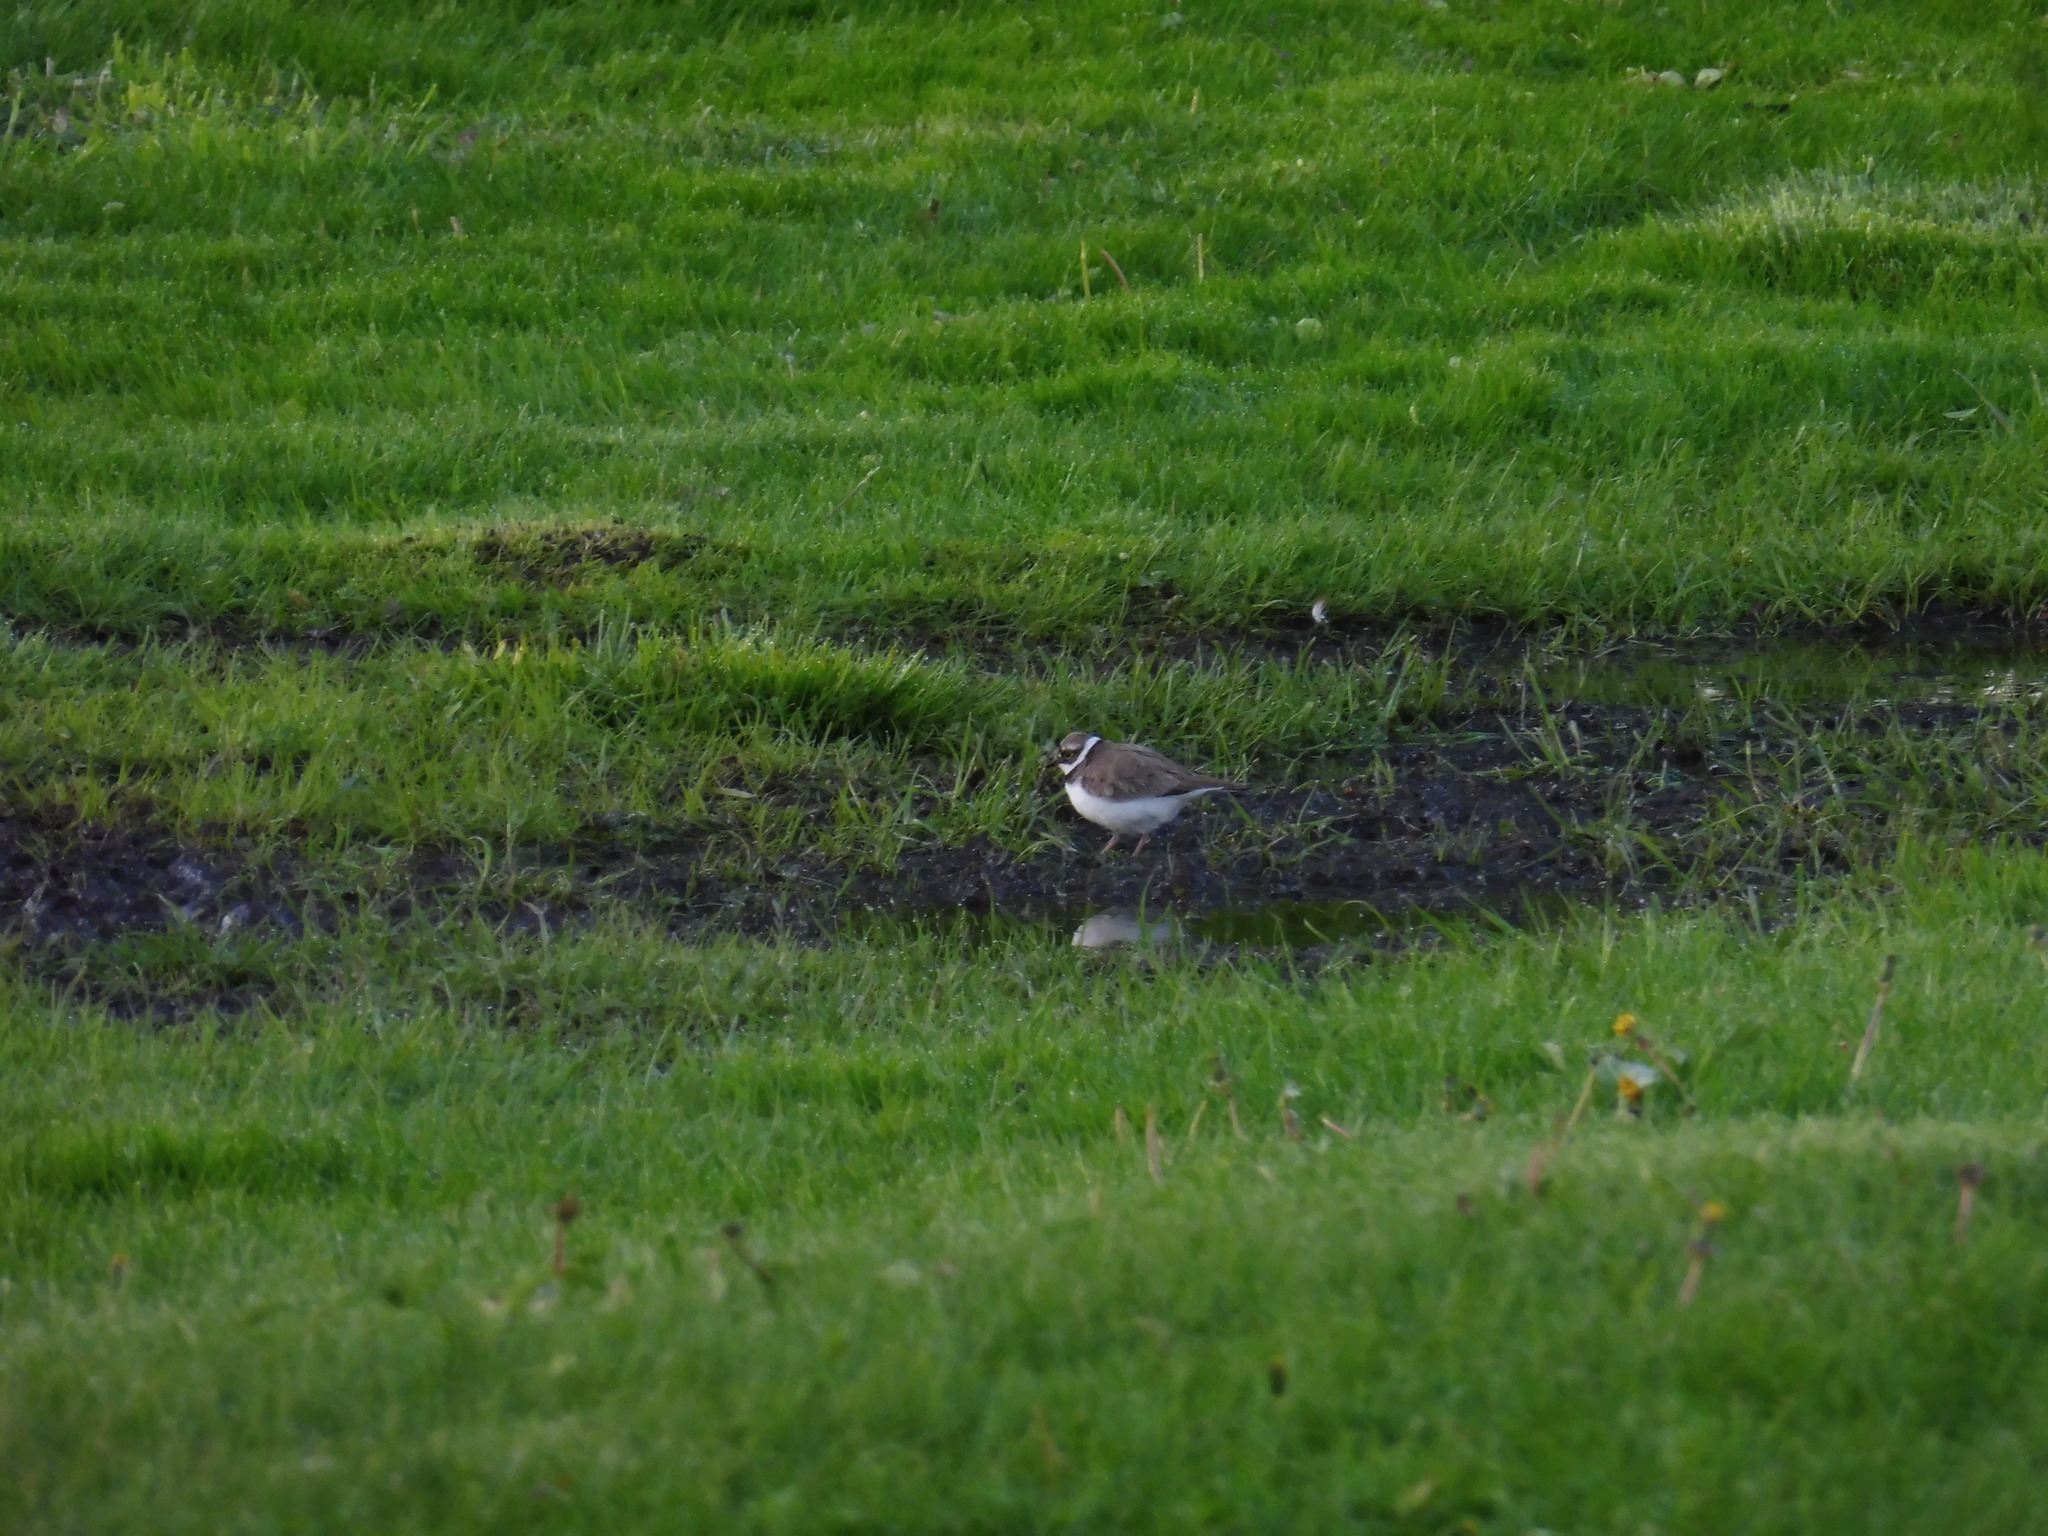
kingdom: Animalia
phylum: Chordata
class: Aves
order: Charadriiformes
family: Charadriidae
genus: Charadrius
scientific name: Charadrius dubius
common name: Little ringed plover
